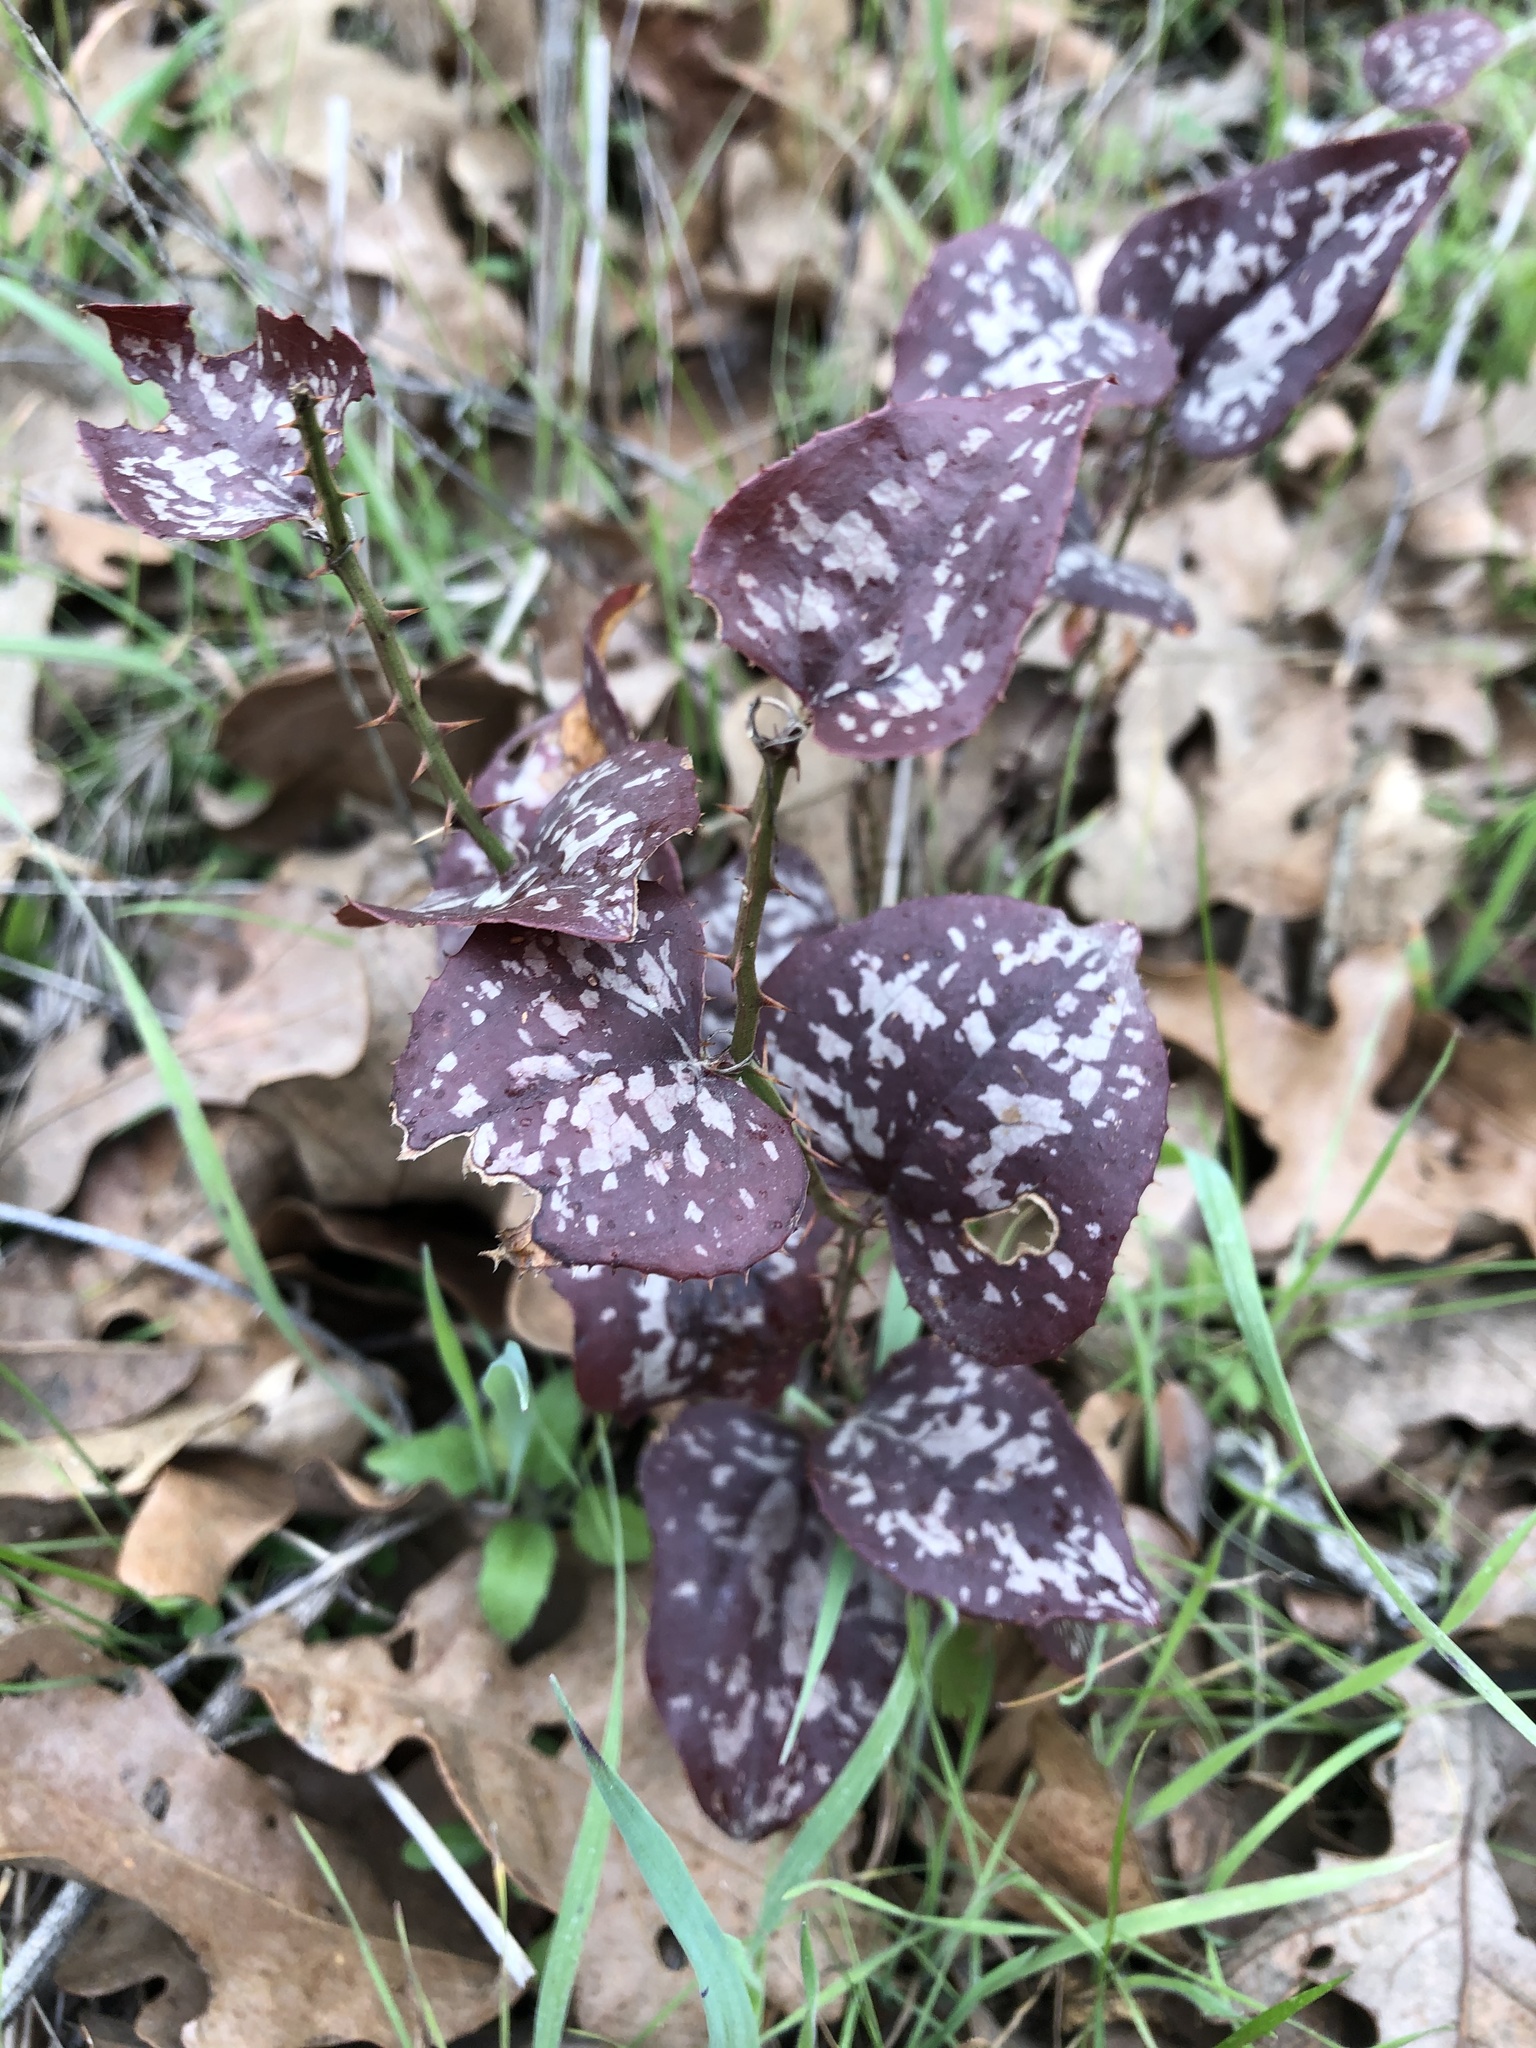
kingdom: Plantae
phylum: Tracheophyta
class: Liliopsida
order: Liliales
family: Smilacaceae
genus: Smilax
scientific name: Smilax bona-nox
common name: Catbrier
